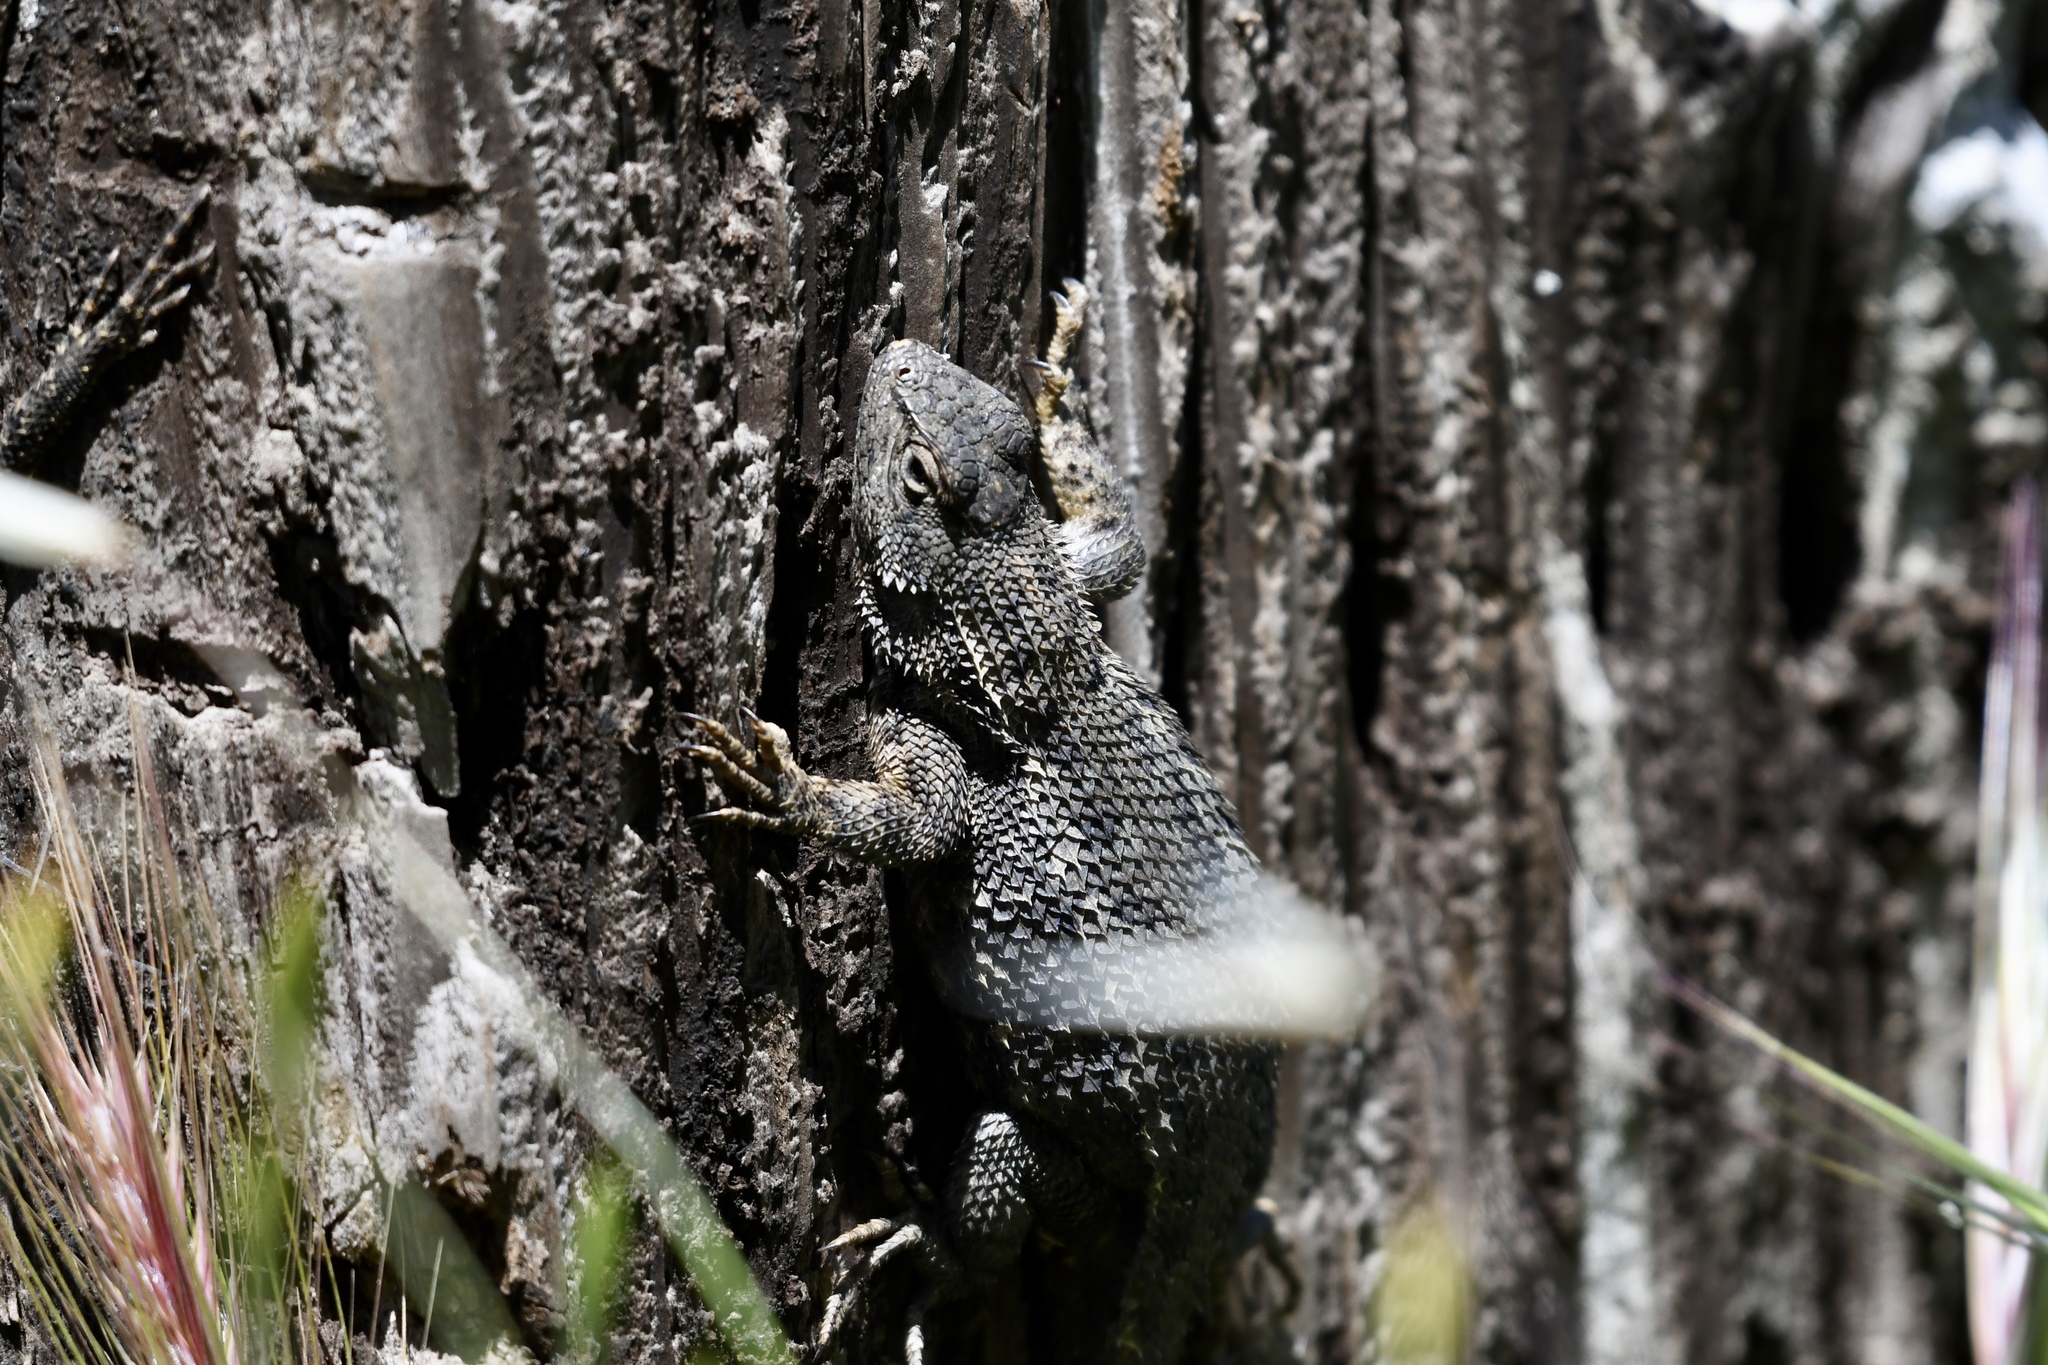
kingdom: Animalia
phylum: Chordata
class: Squamata
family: Phrynosomatidae
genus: Sceloporus
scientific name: Sceloporus occidentalis
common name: Western fence lizard
